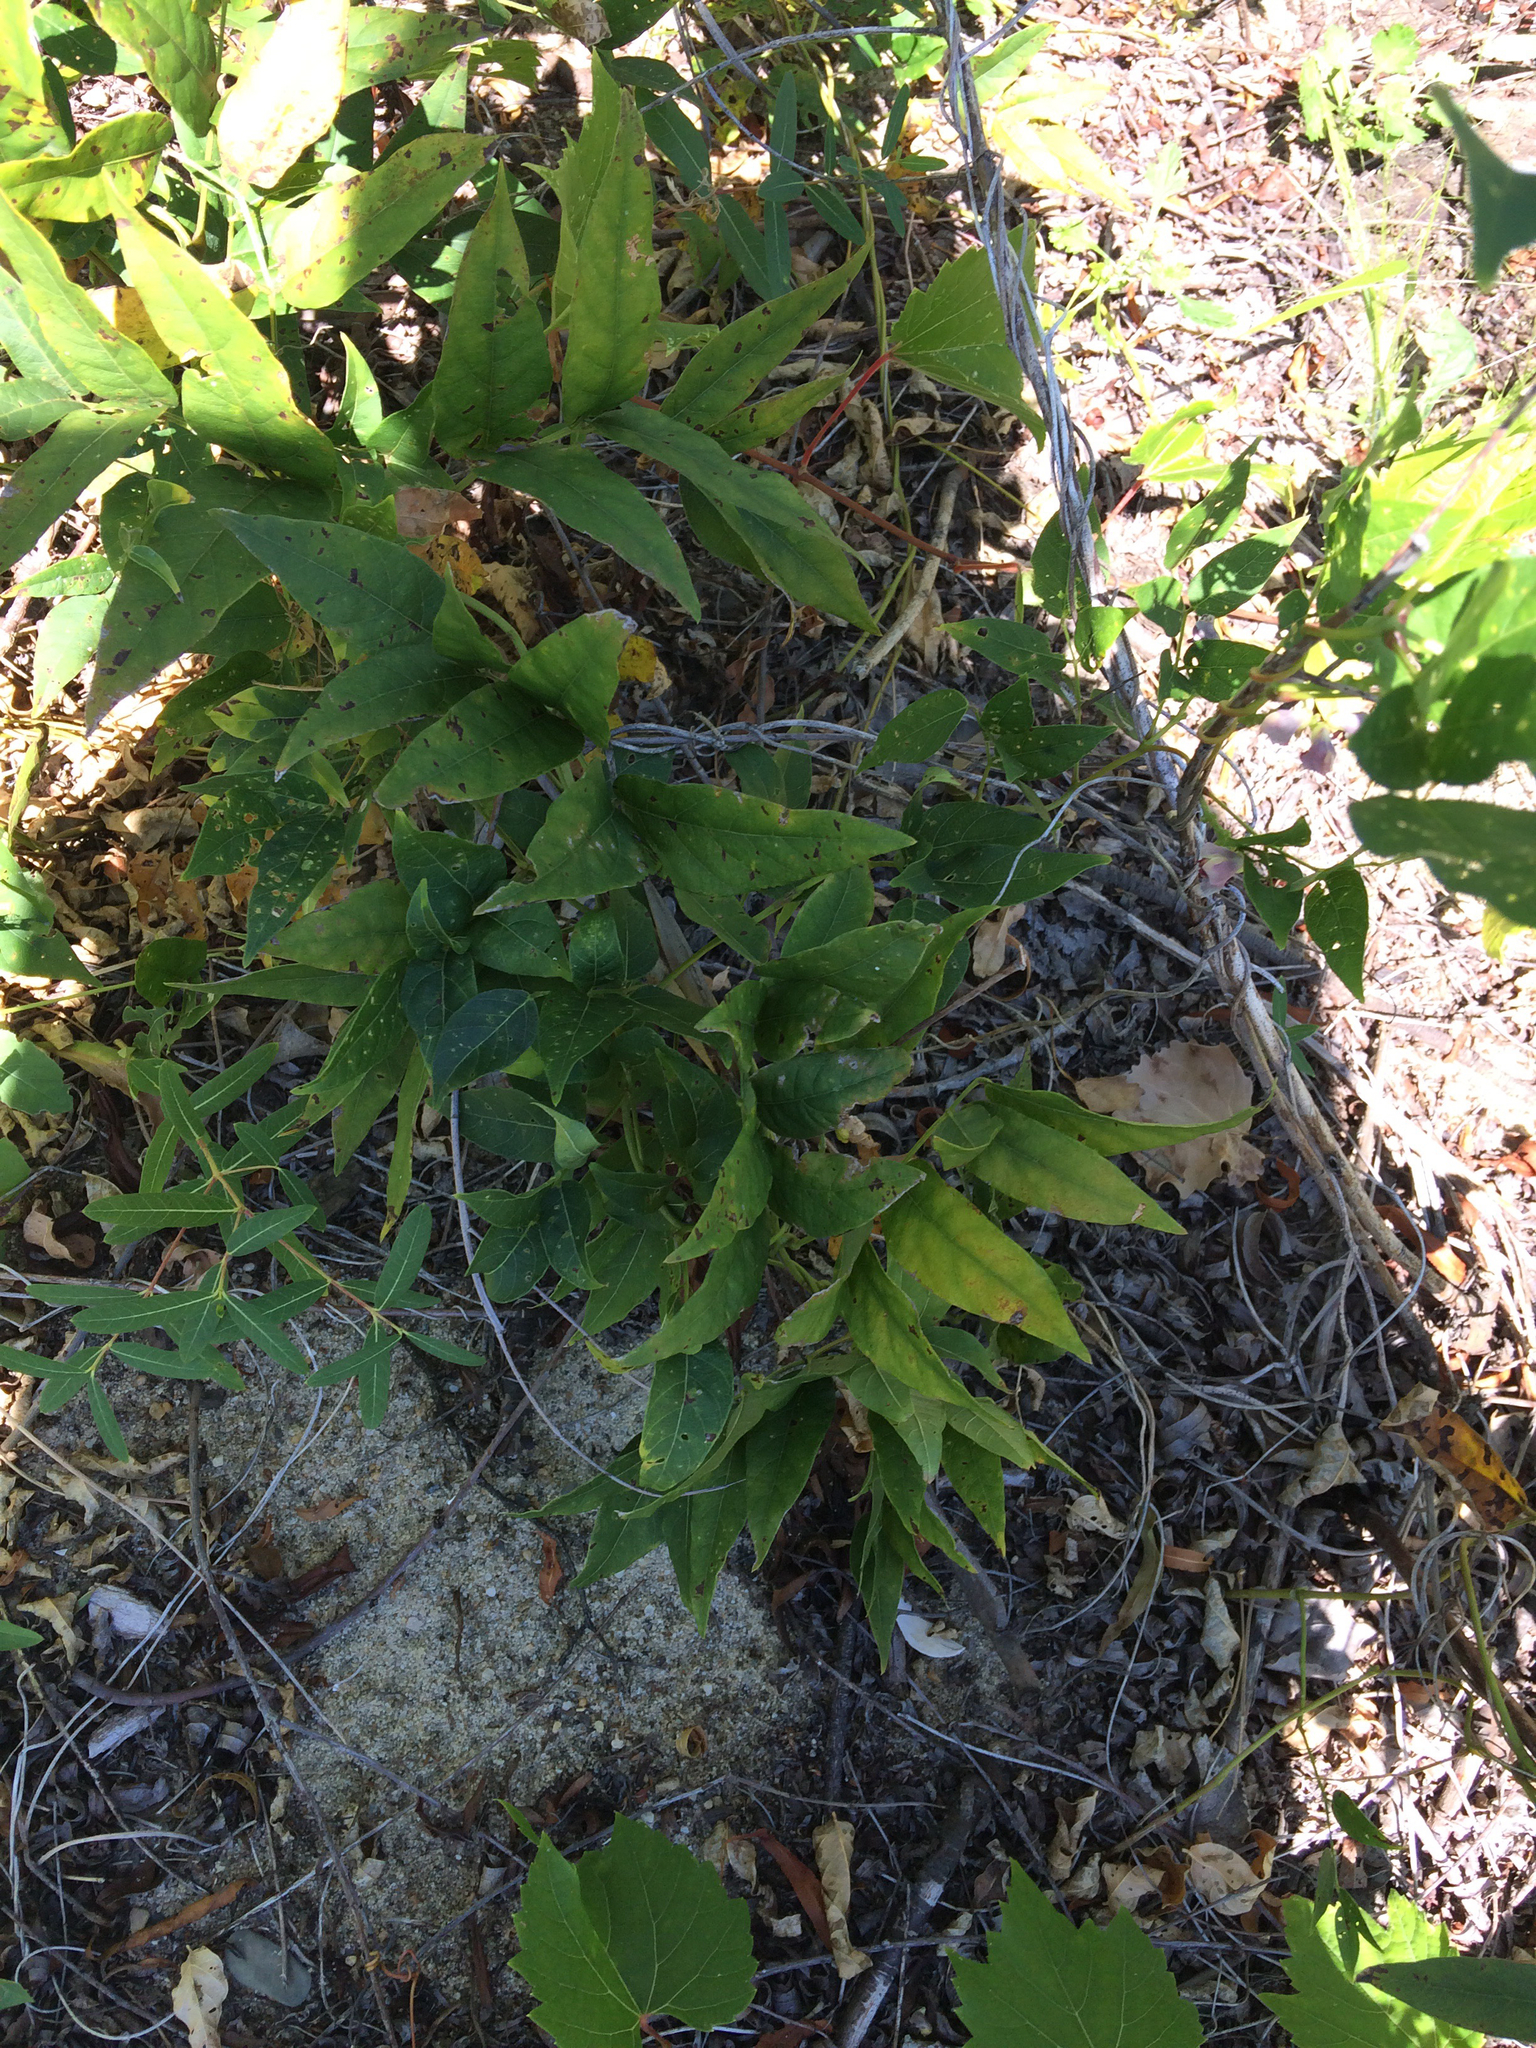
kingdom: Plantae
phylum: Tracheophyta
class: Magnoliopsida
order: Fabales
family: Fabaceae
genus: Apios
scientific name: Apios americana
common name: American potato-bean
